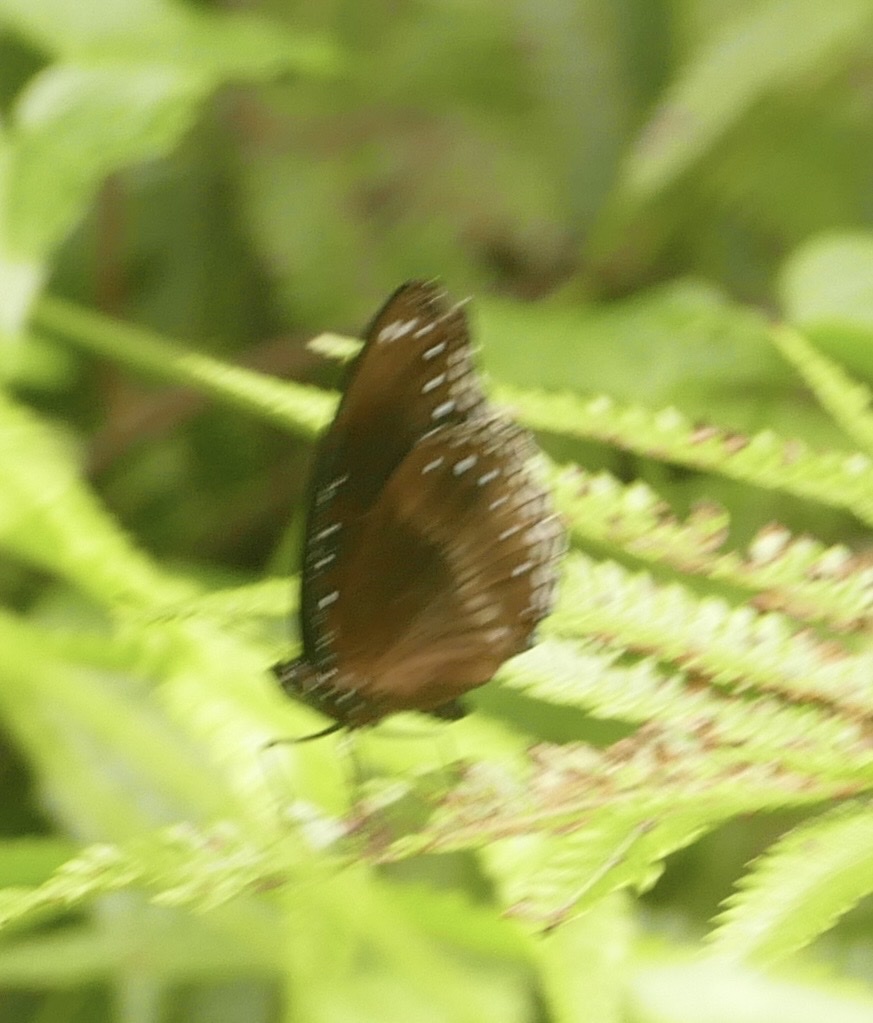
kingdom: Animalia
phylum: Arthropoda
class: Insecta
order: Lepidoptera
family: Nymphalidae
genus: Hypolimnas
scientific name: Hypolimnas alimena
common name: Blue-banded eggfly
